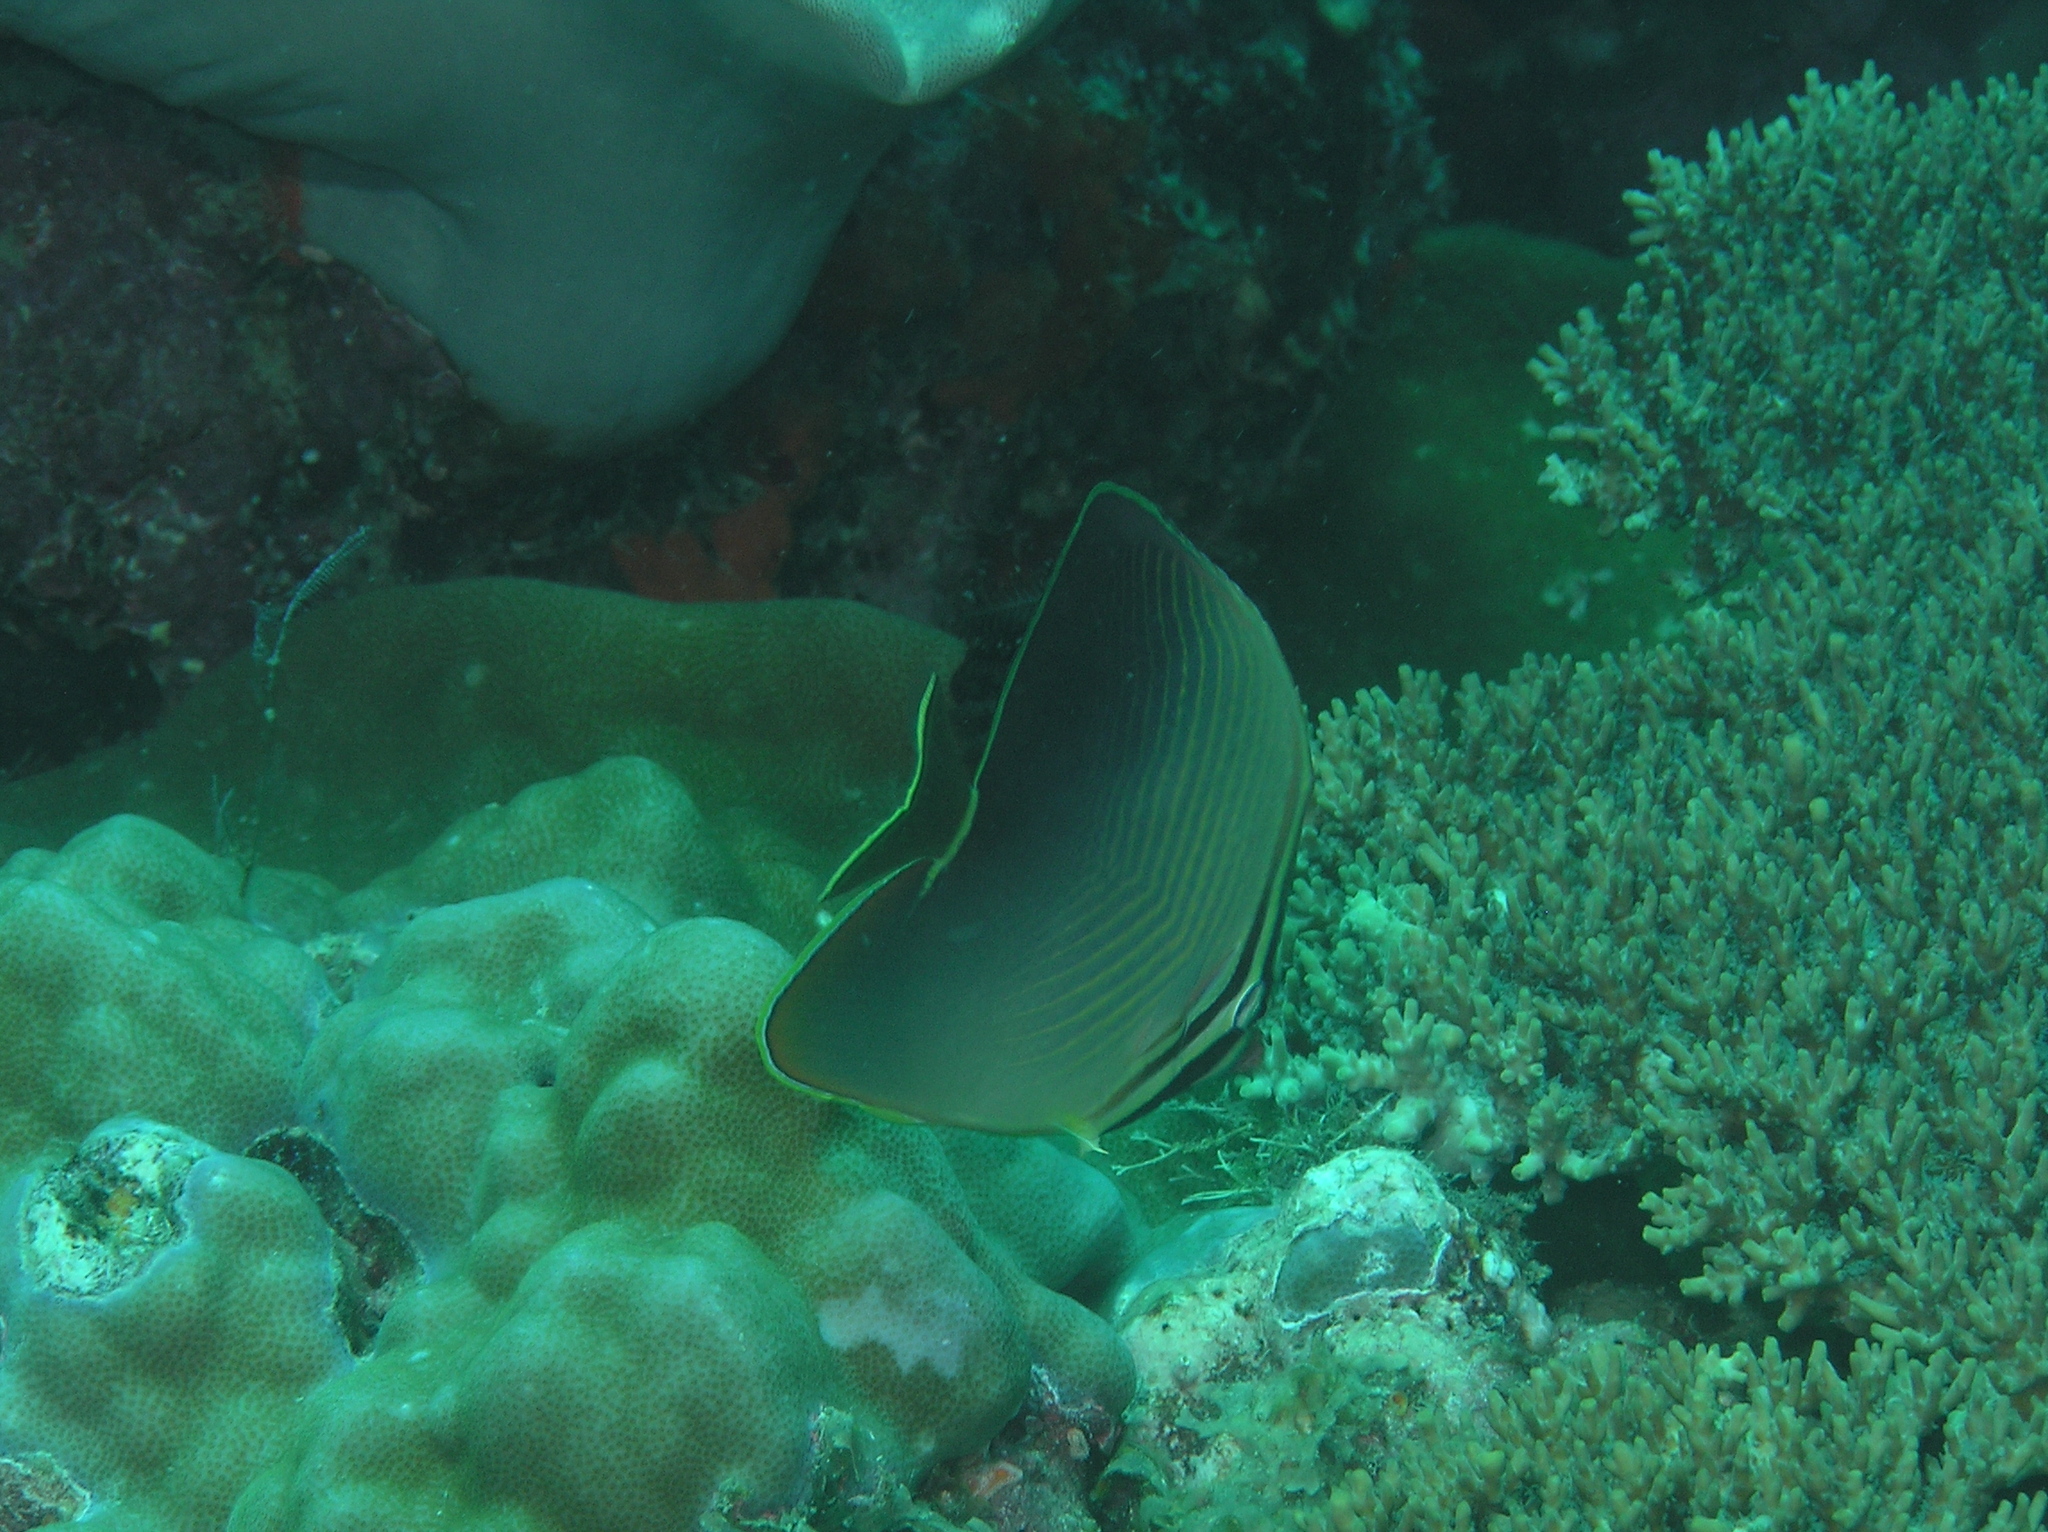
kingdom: Animalia
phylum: Chordata
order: Perciformes
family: Chaetodontidae
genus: Chaetodon
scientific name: Chaetodon baronessa
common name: Triangular butterflyfish
